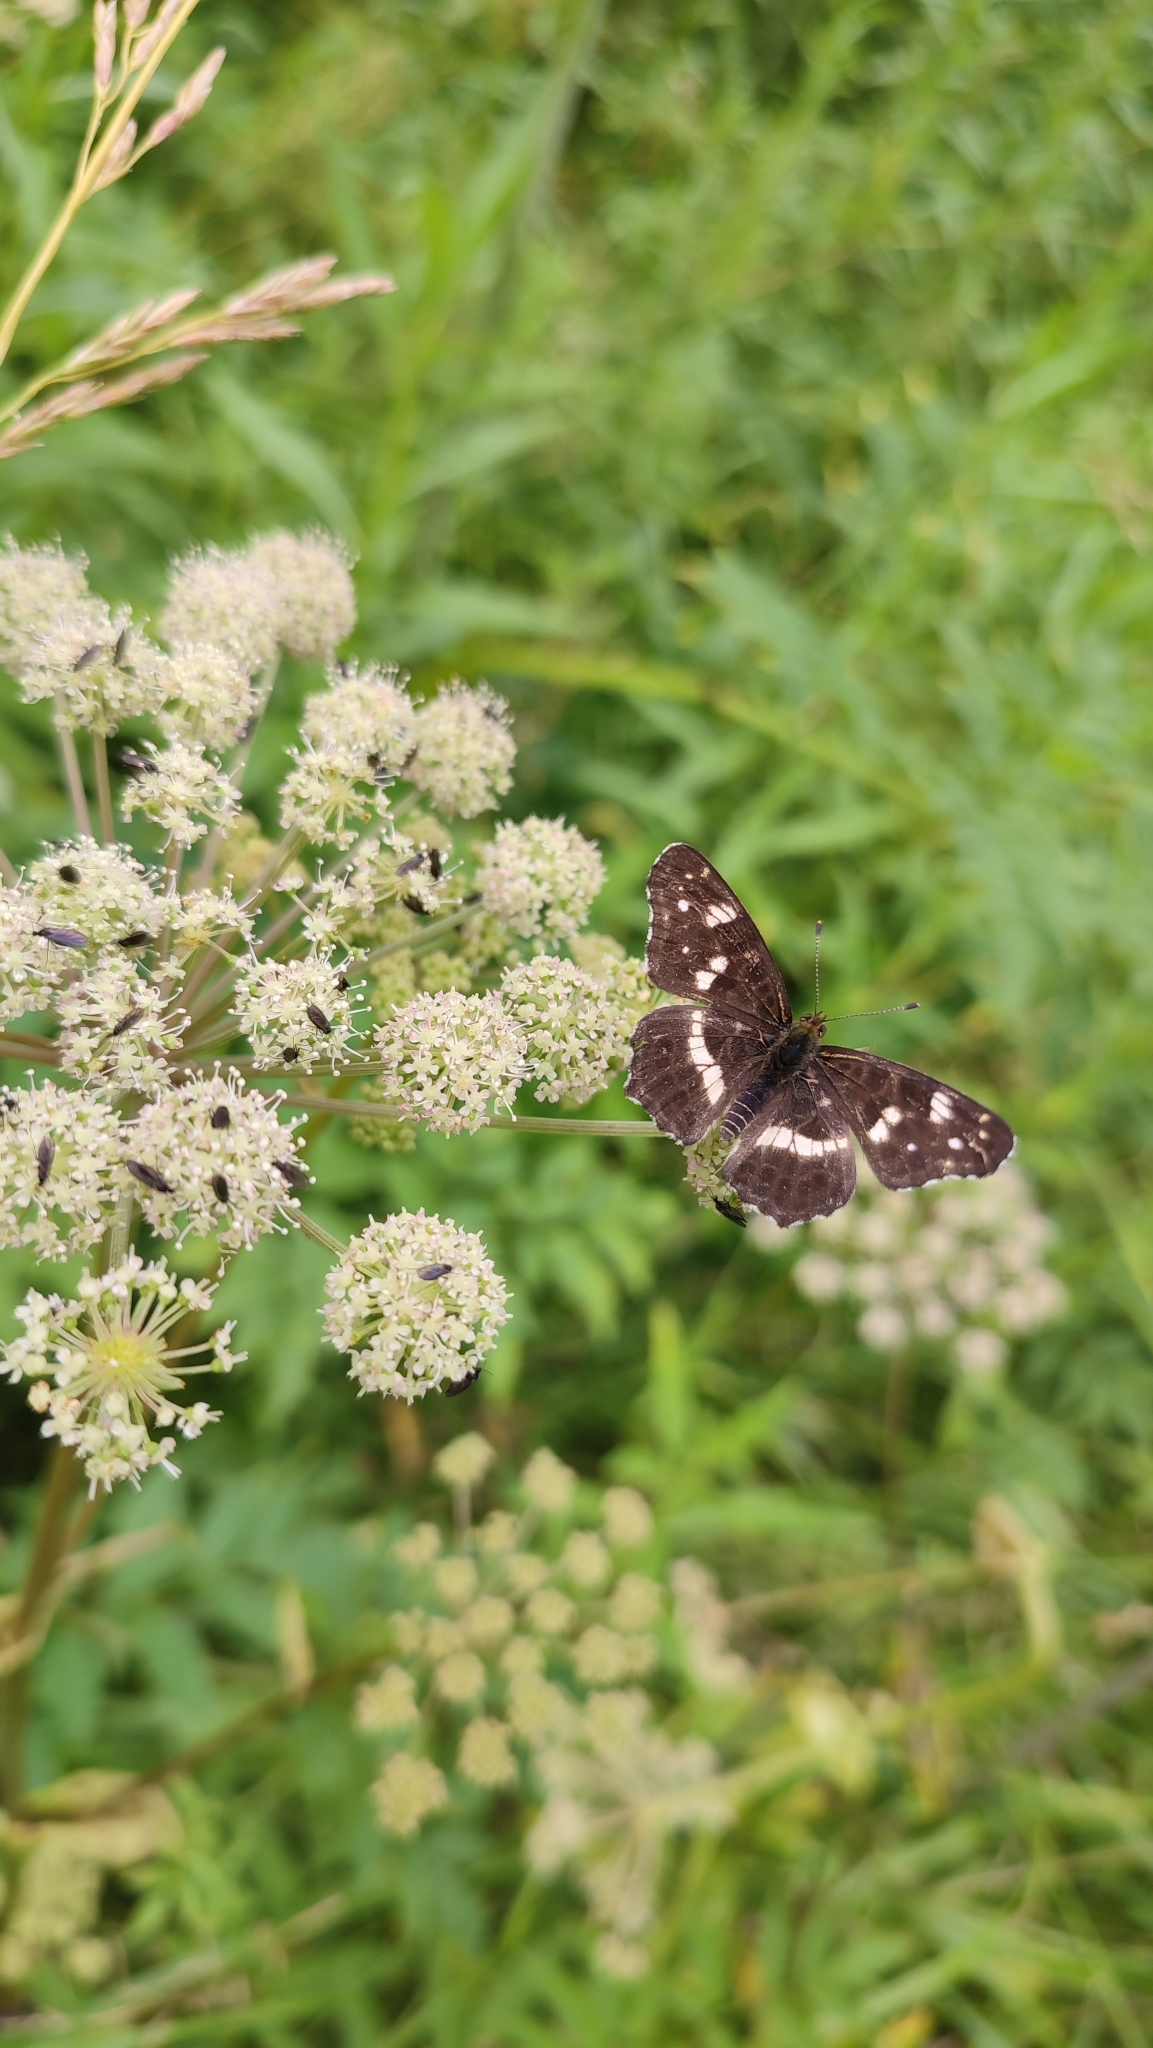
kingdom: Animalia
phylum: Arthropoda
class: Insecta
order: Lepidoptera
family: Nymphalidae
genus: Araschnia
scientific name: Araschnia levana
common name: Map butterfly
